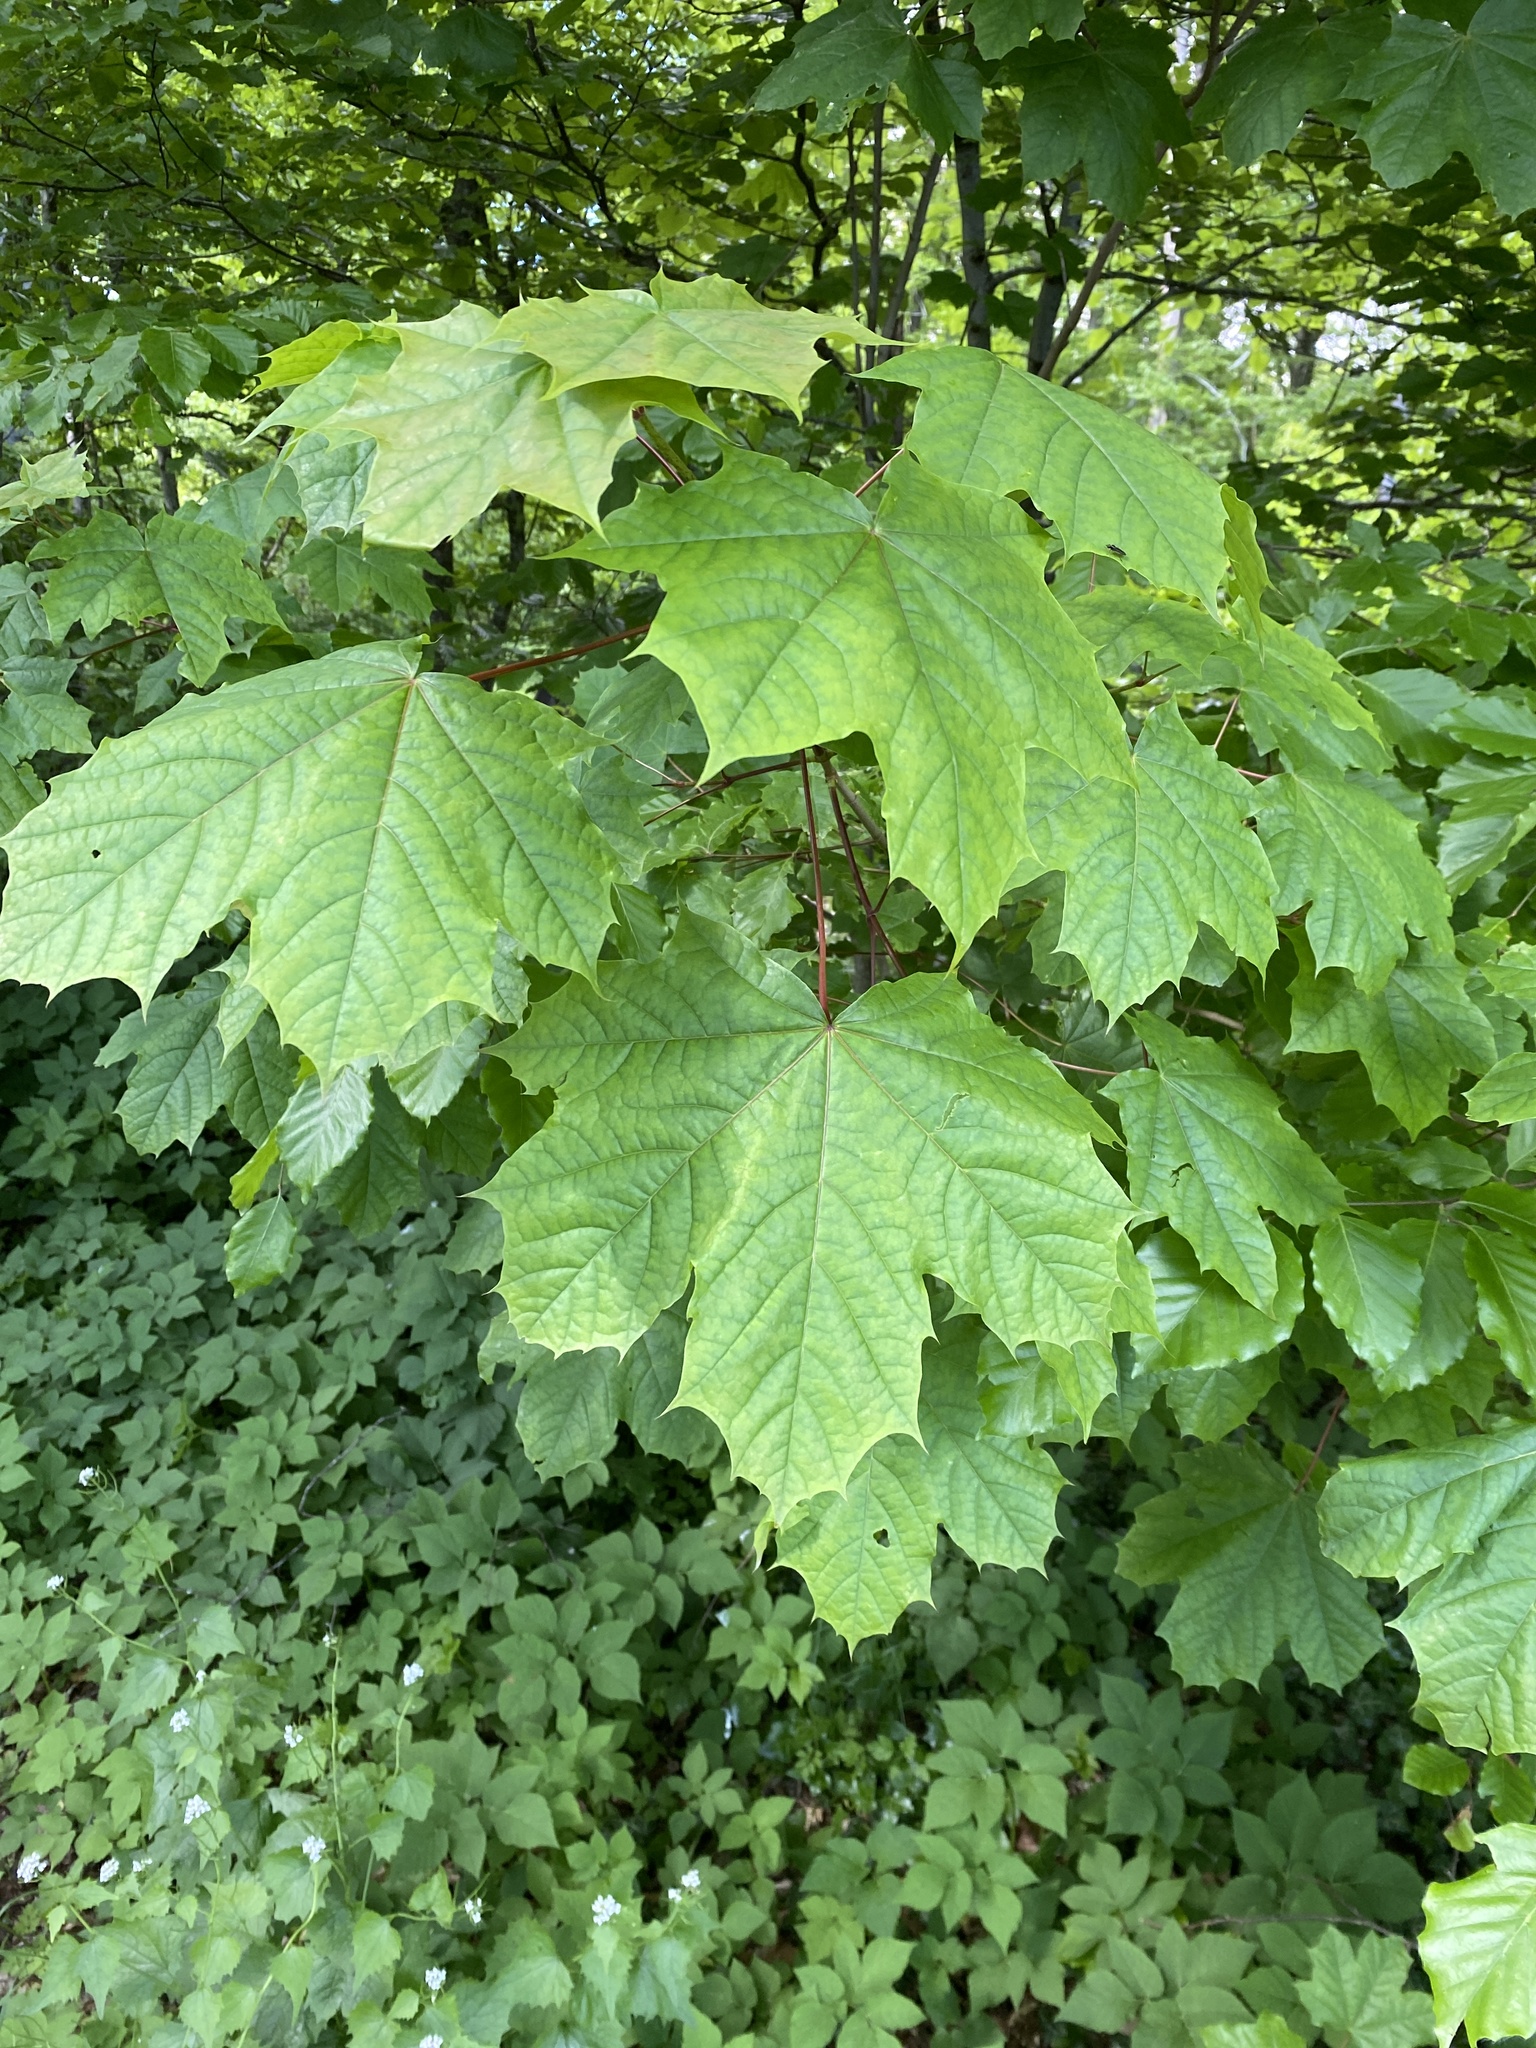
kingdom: Plantae
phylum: Tracheophyta
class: Magnoliopsida
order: Sapindales
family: Sapindaceae
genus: Acer
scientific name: Acer platanoides
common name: Norway maple
